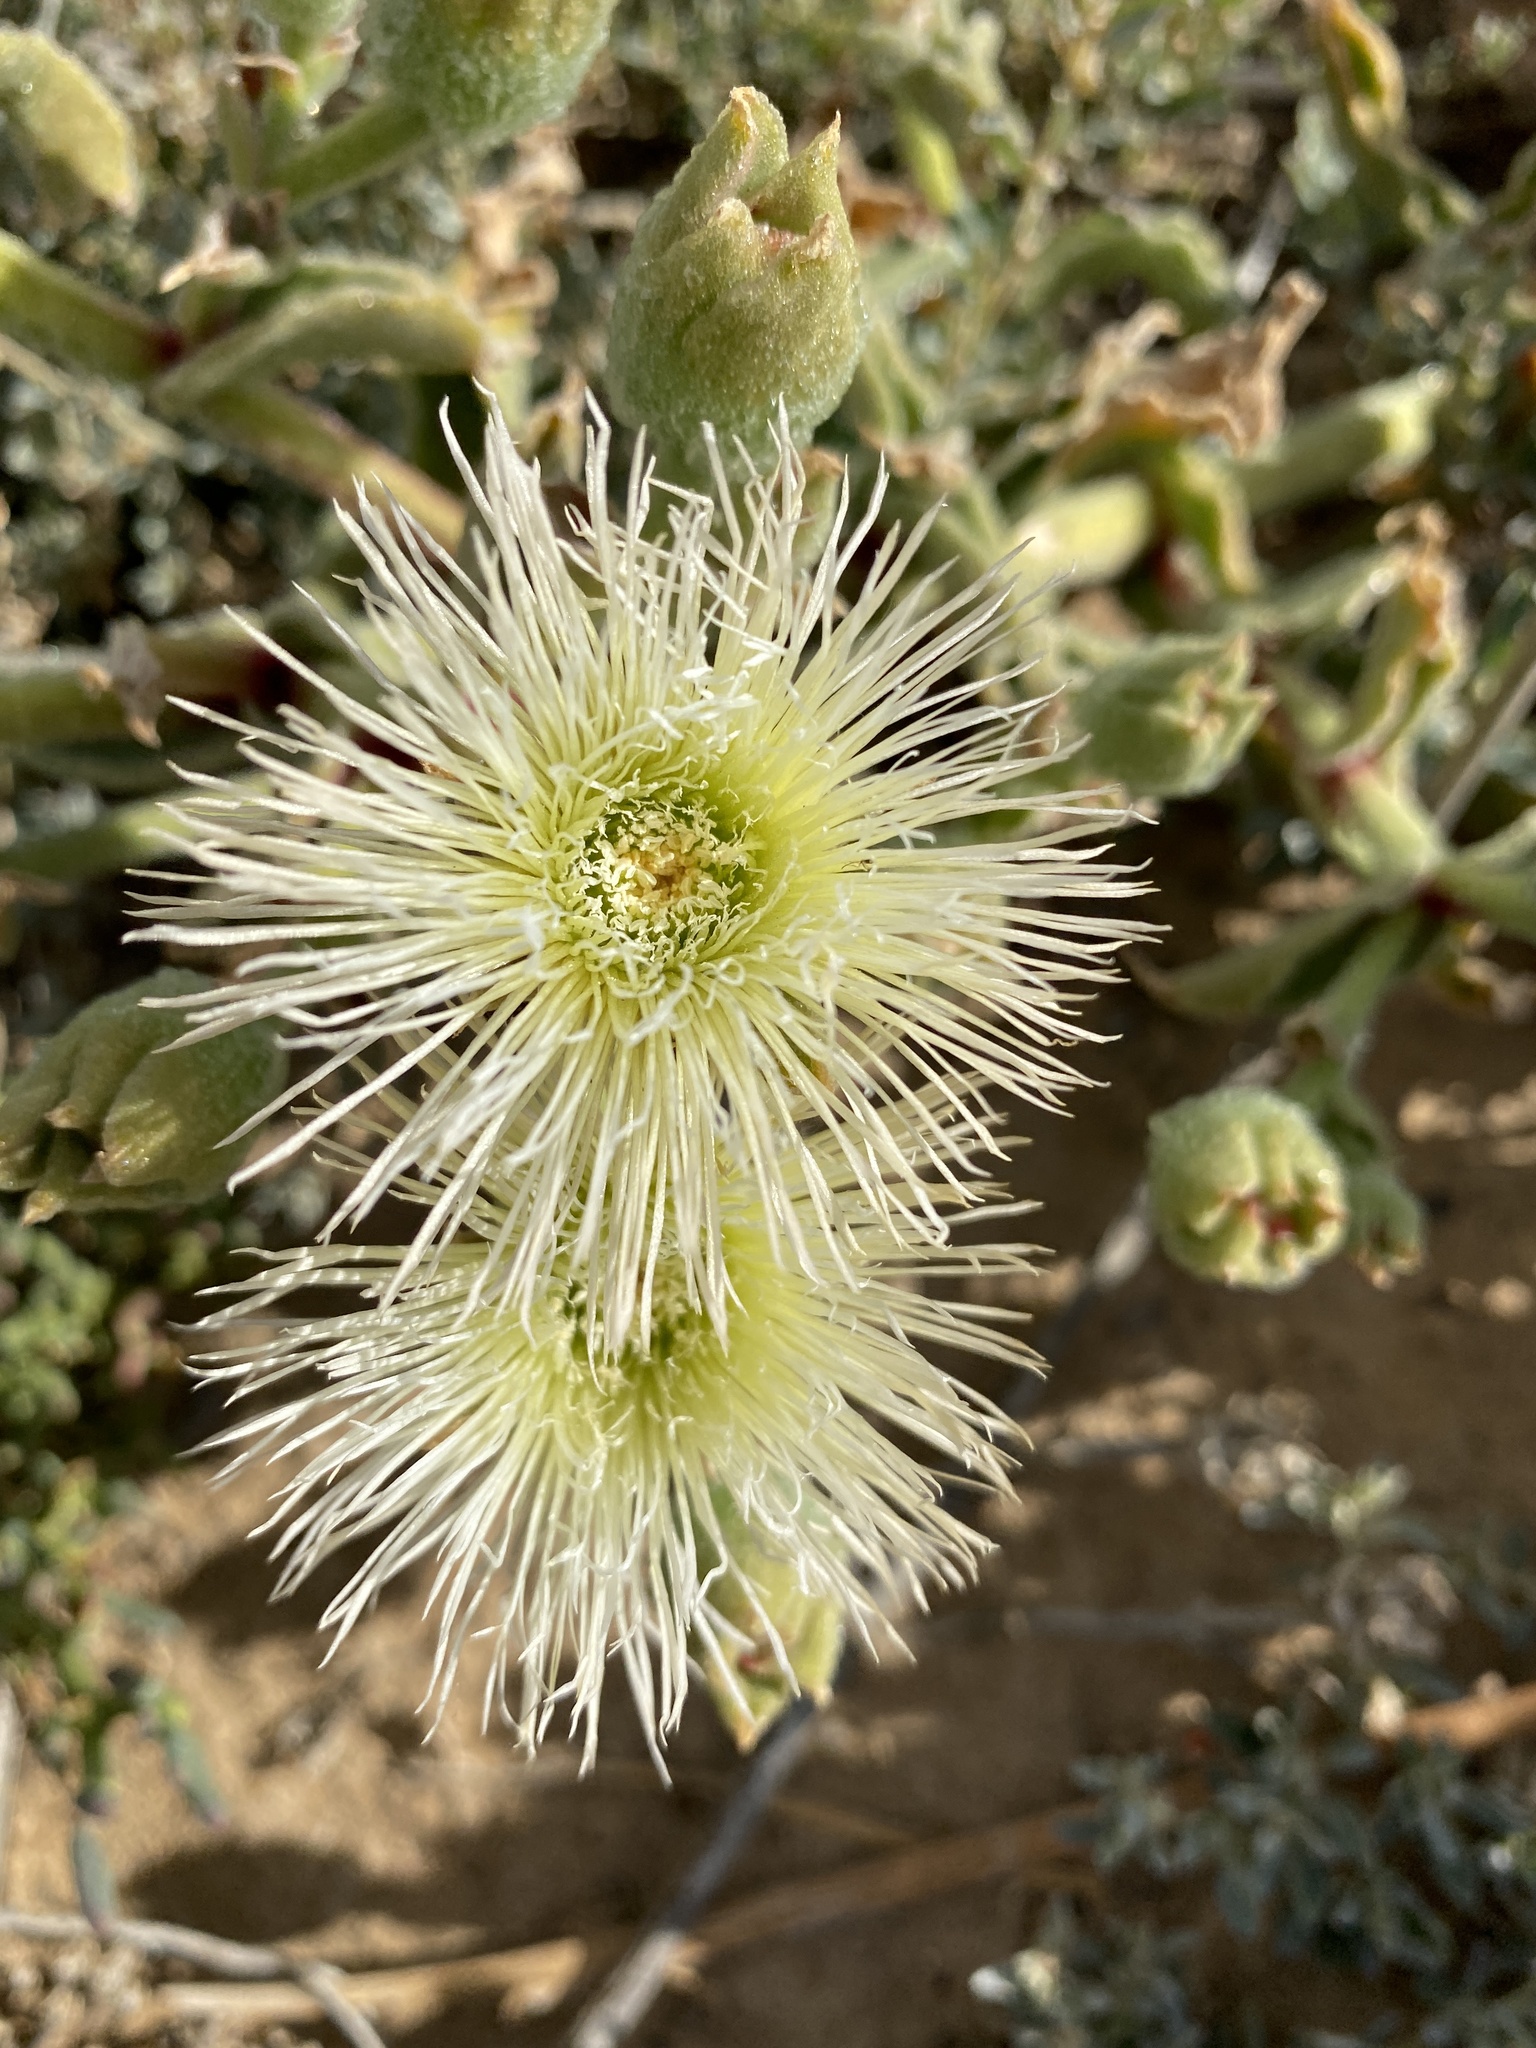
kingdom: Plantae
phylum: Tracheophyta
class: Magnoliopsida
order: Caryophyllales
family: Aizoaceae
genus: Mesembryanthemum
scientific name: Mesembryanthemum guerichianum
